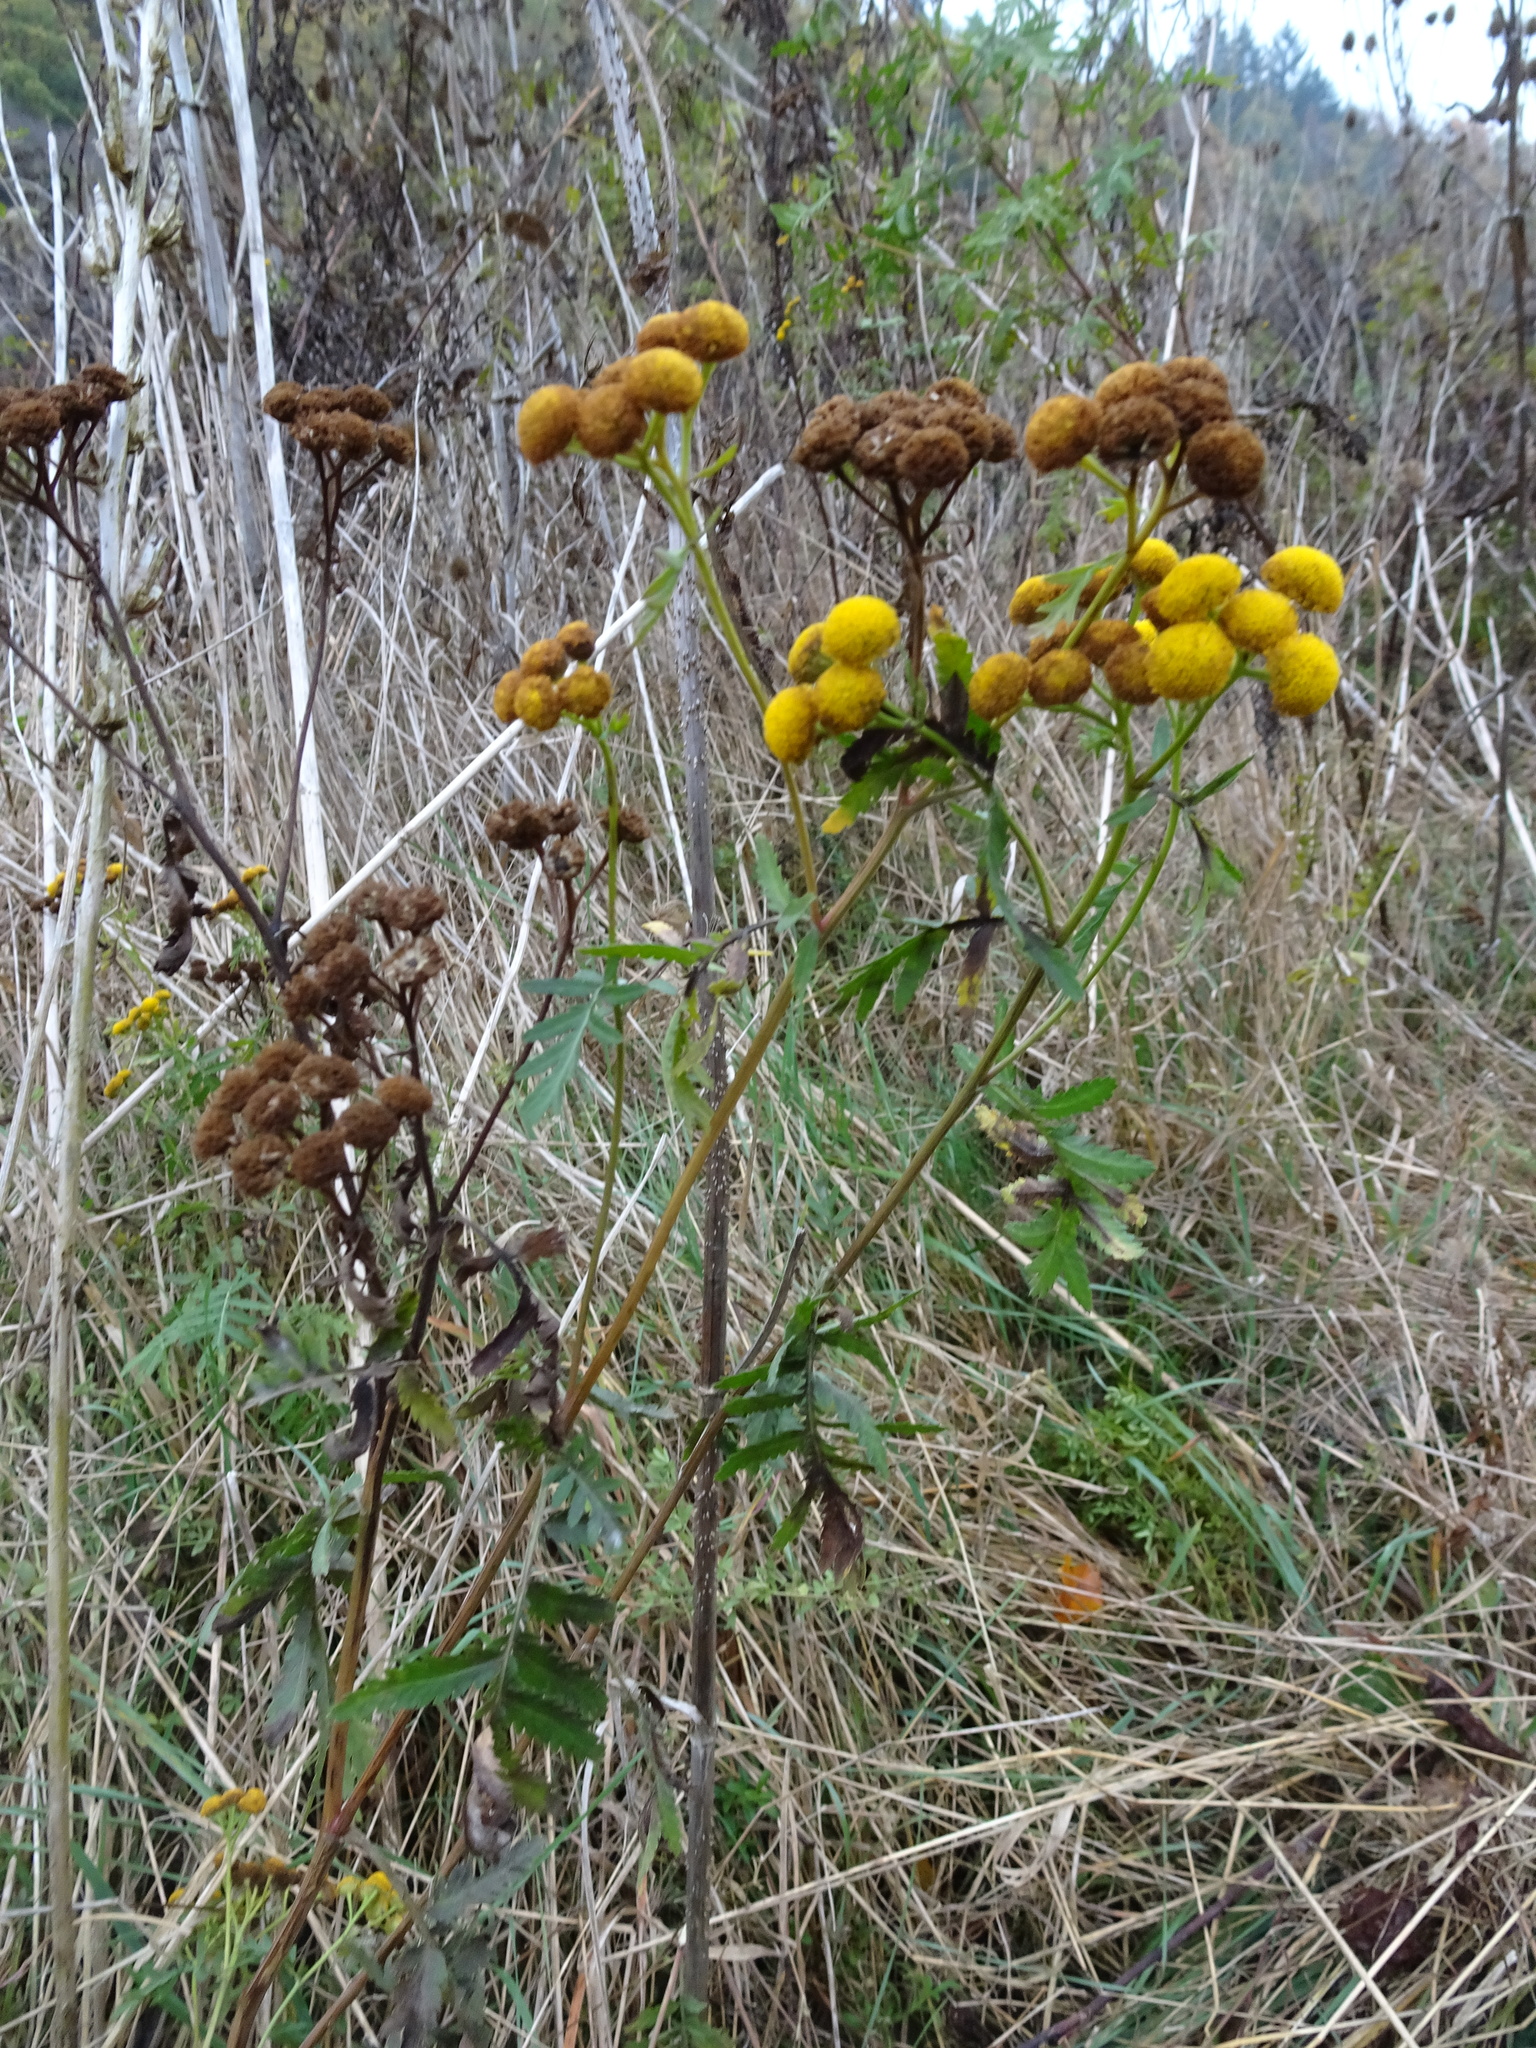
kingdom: Plantae
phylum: Tracheophyta
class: Magnoliopsida
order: Asterales
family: Asteraceae
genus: Tanacetum
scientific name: Tanacetum vulgare
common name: Common tansy
